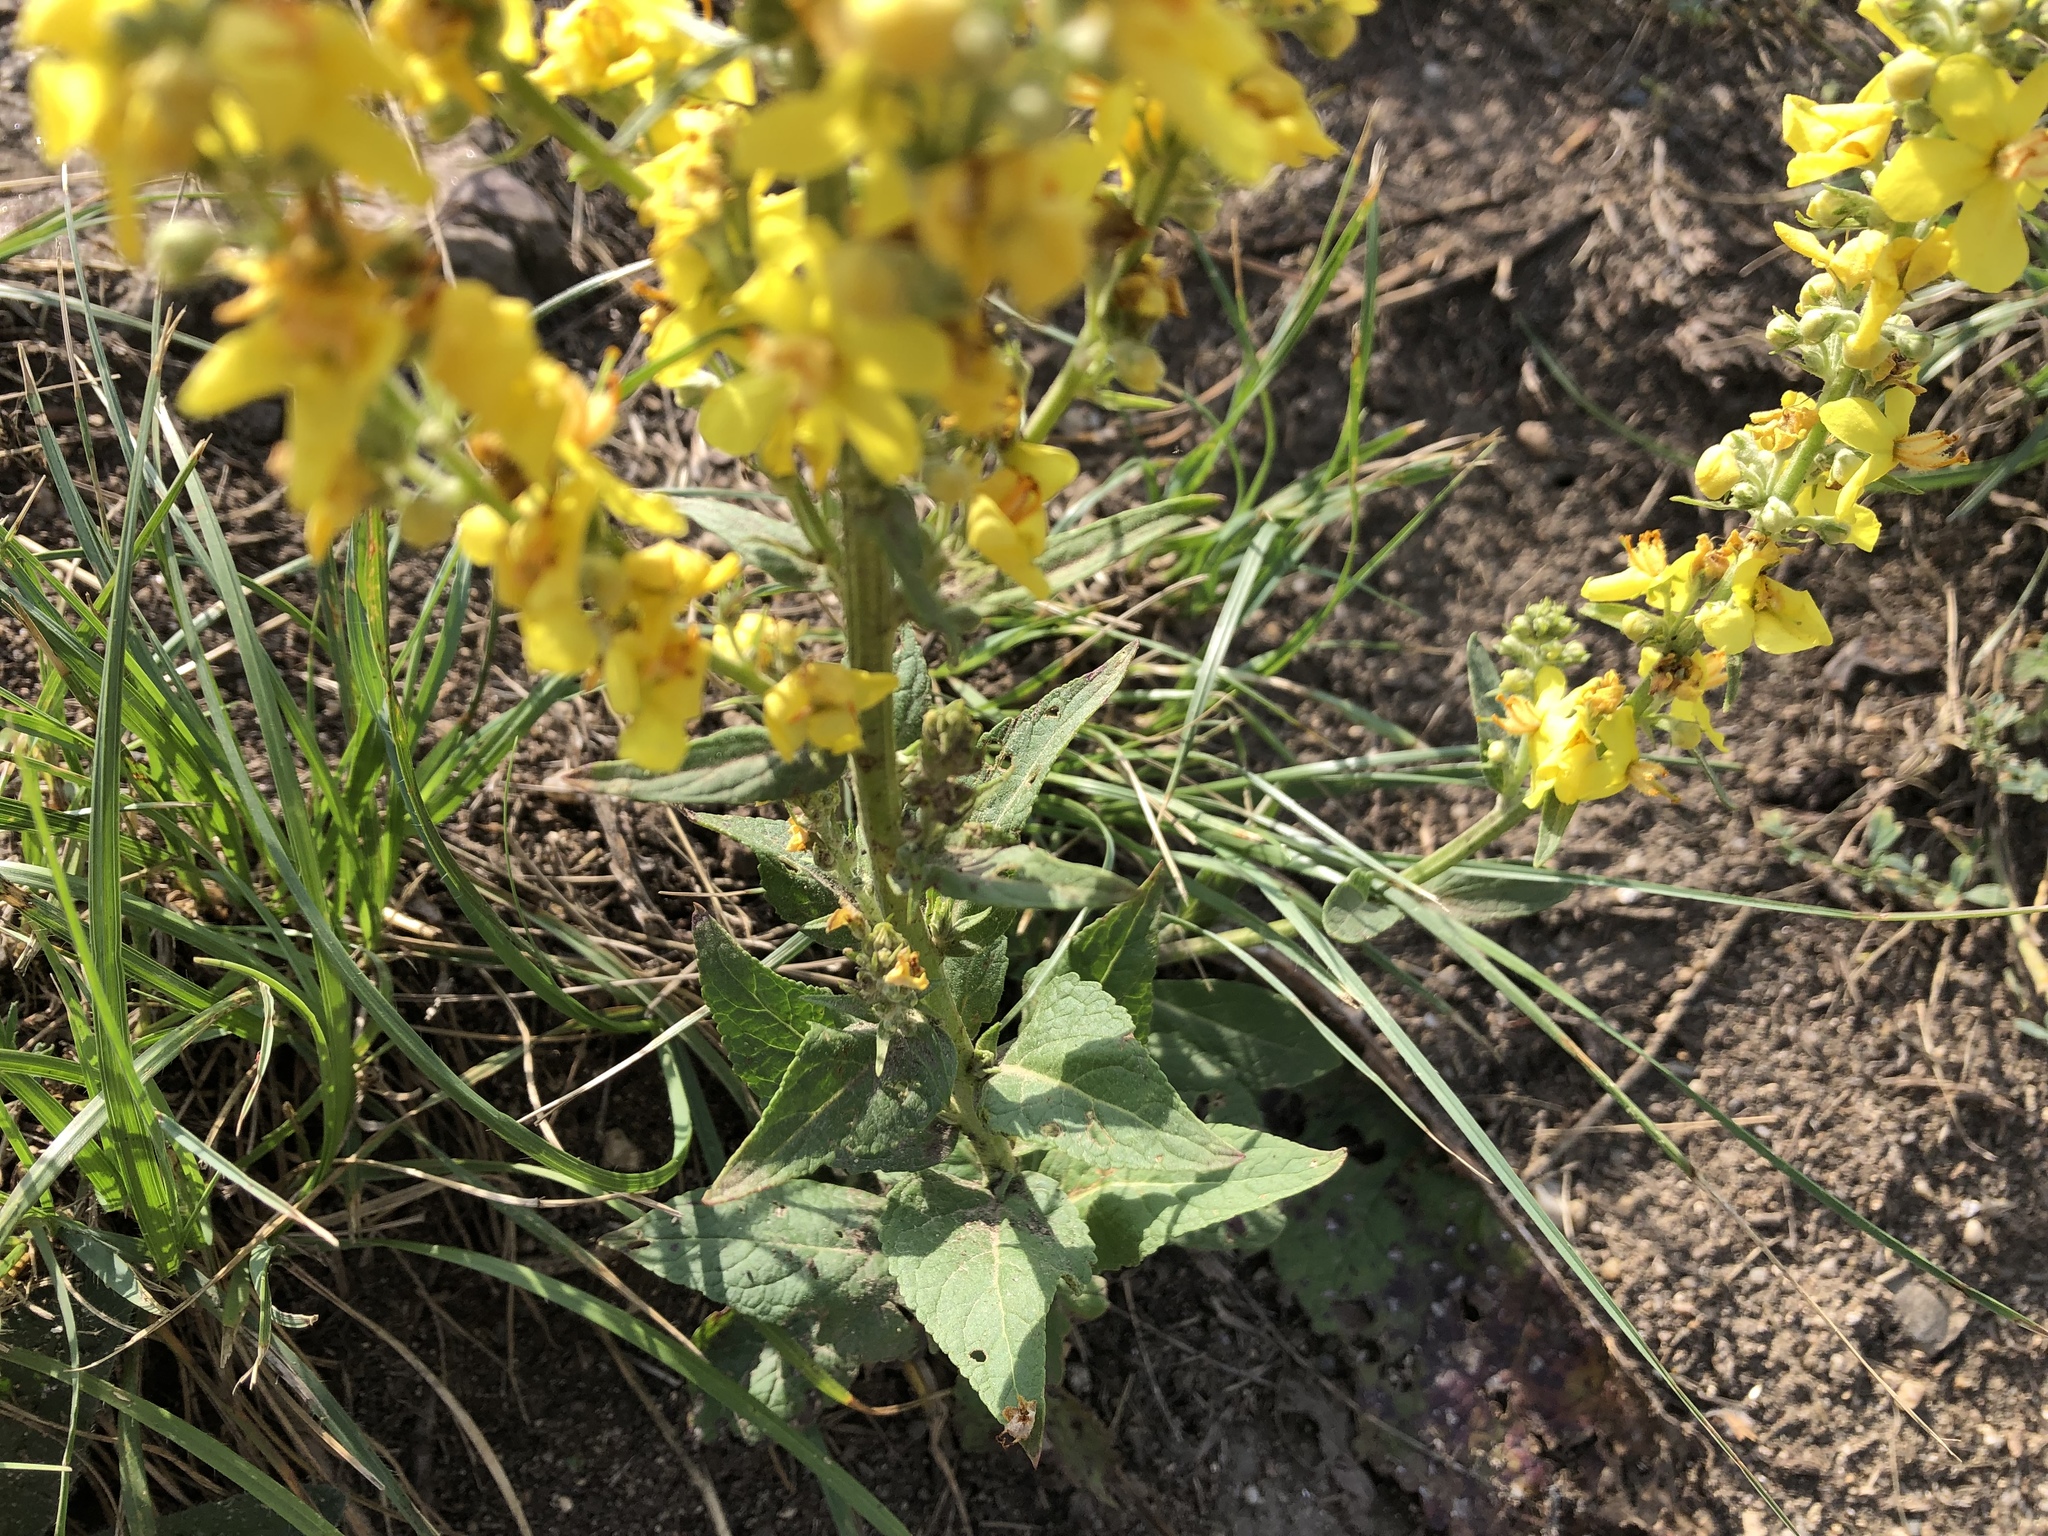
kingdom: Plantae
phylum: Tracheophyta
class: Magnoliopsida
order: Lamiales
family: Scrophulariaceae
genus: Verbascum
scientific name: Verbascum phlomoides
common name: Orange mullein
